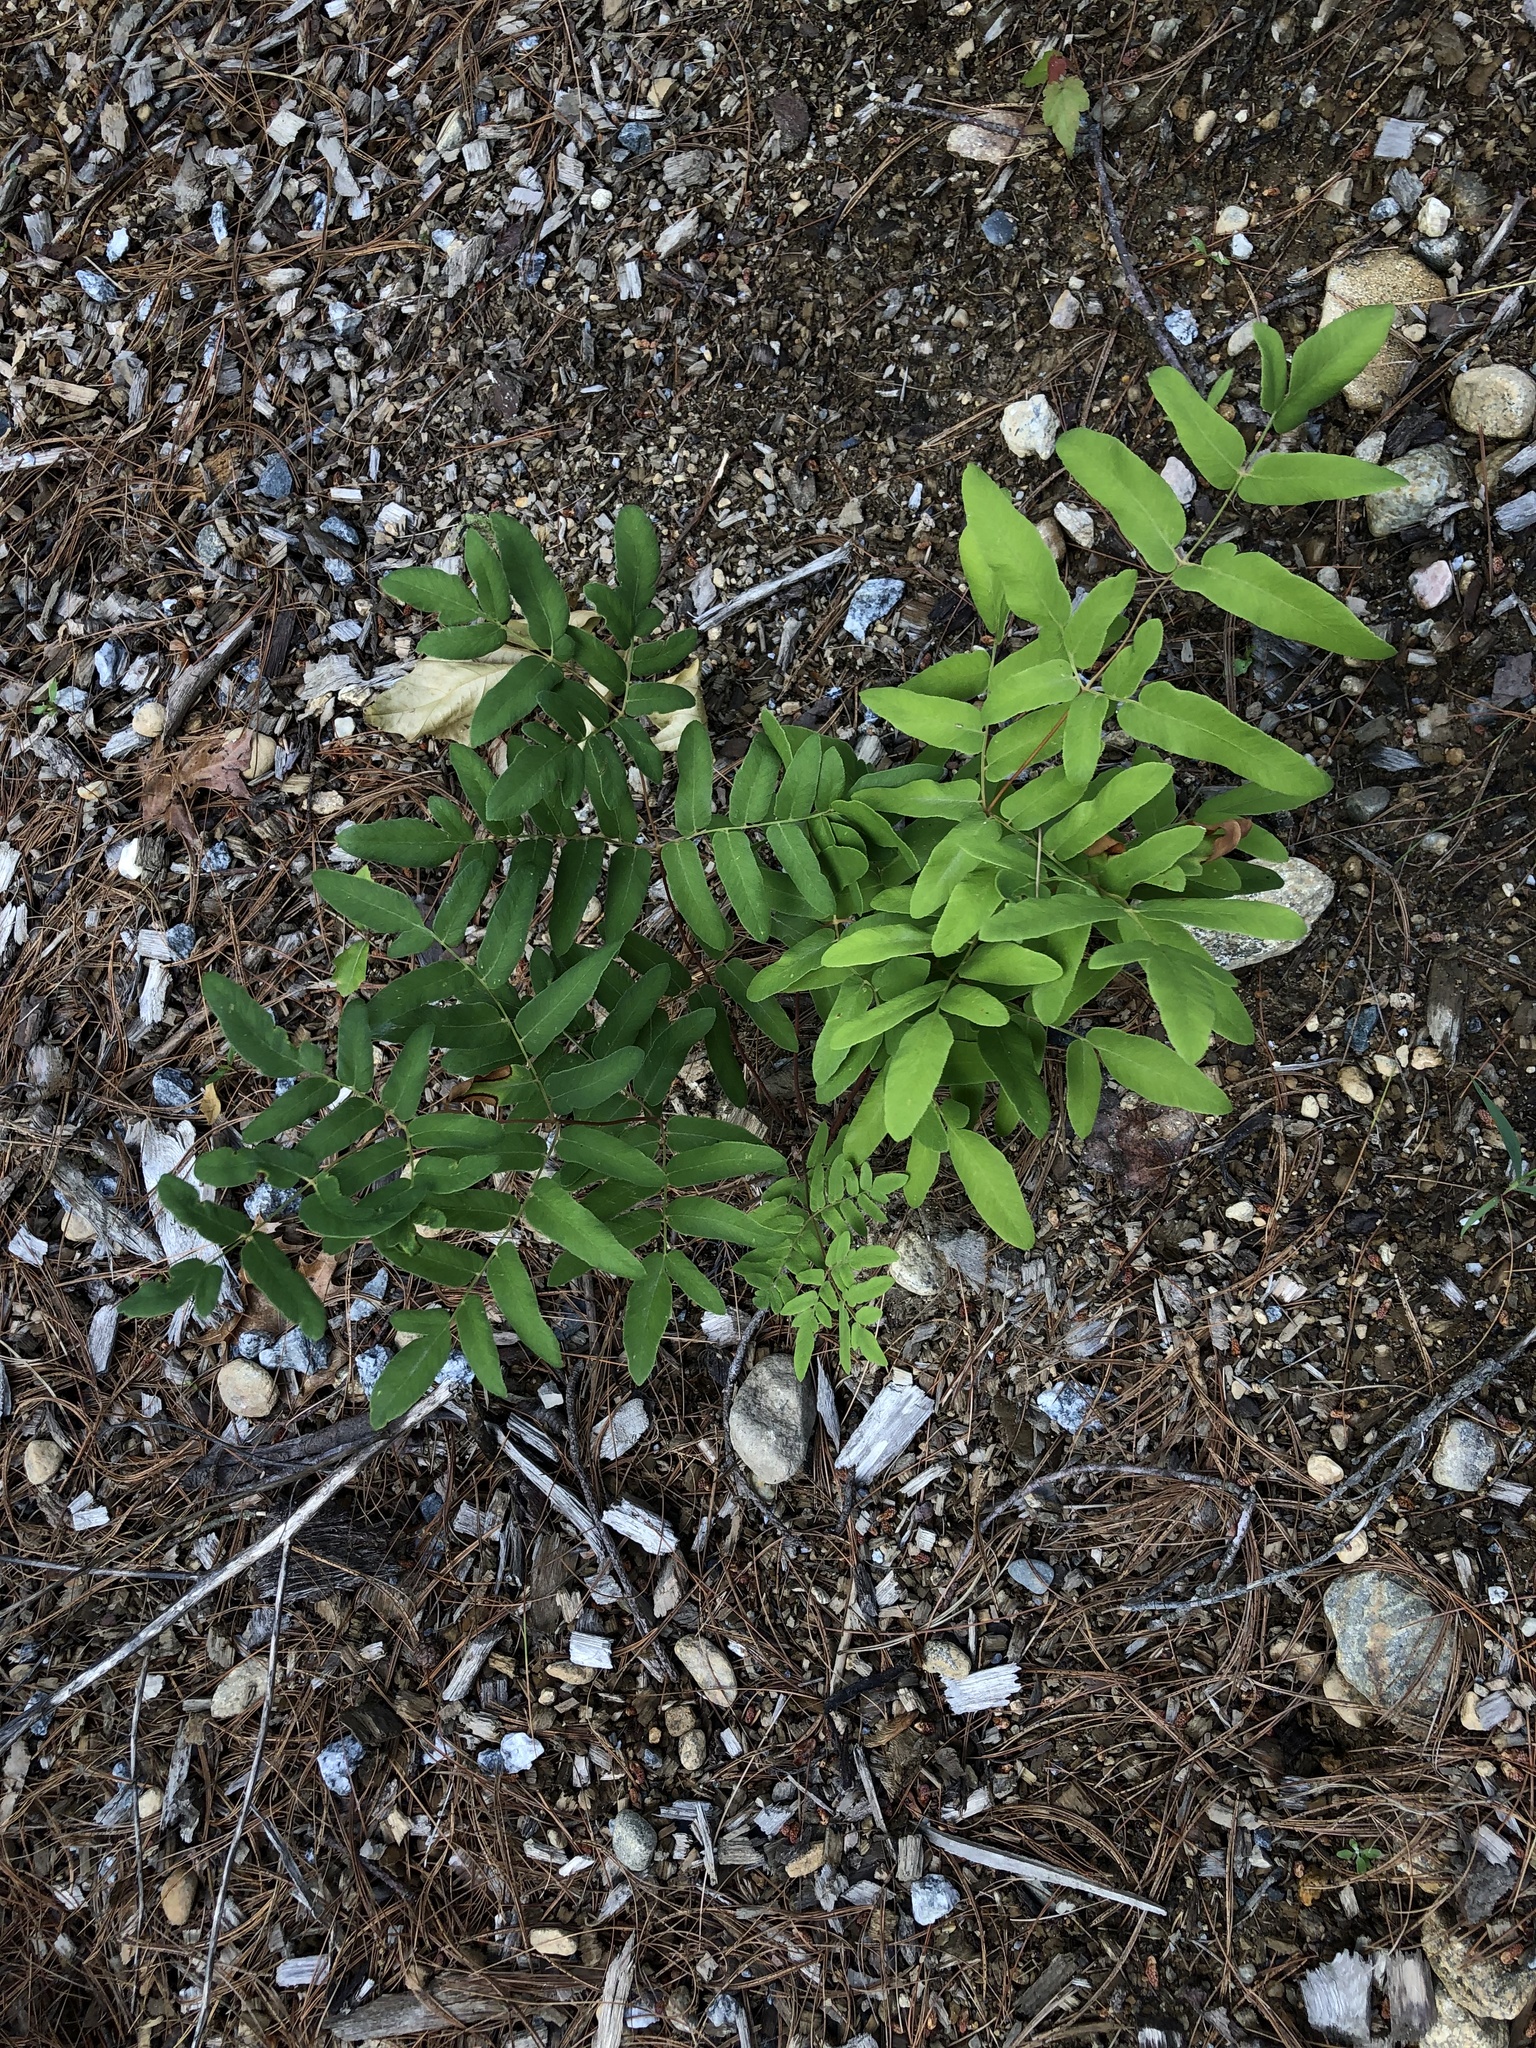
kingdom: Plantae
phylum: Tracheophyta
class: Polypodiopsida
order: Osmundales
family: Osmundaceae
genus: Osmunda
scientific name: Osmunda spectabilis
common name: American royal fern
